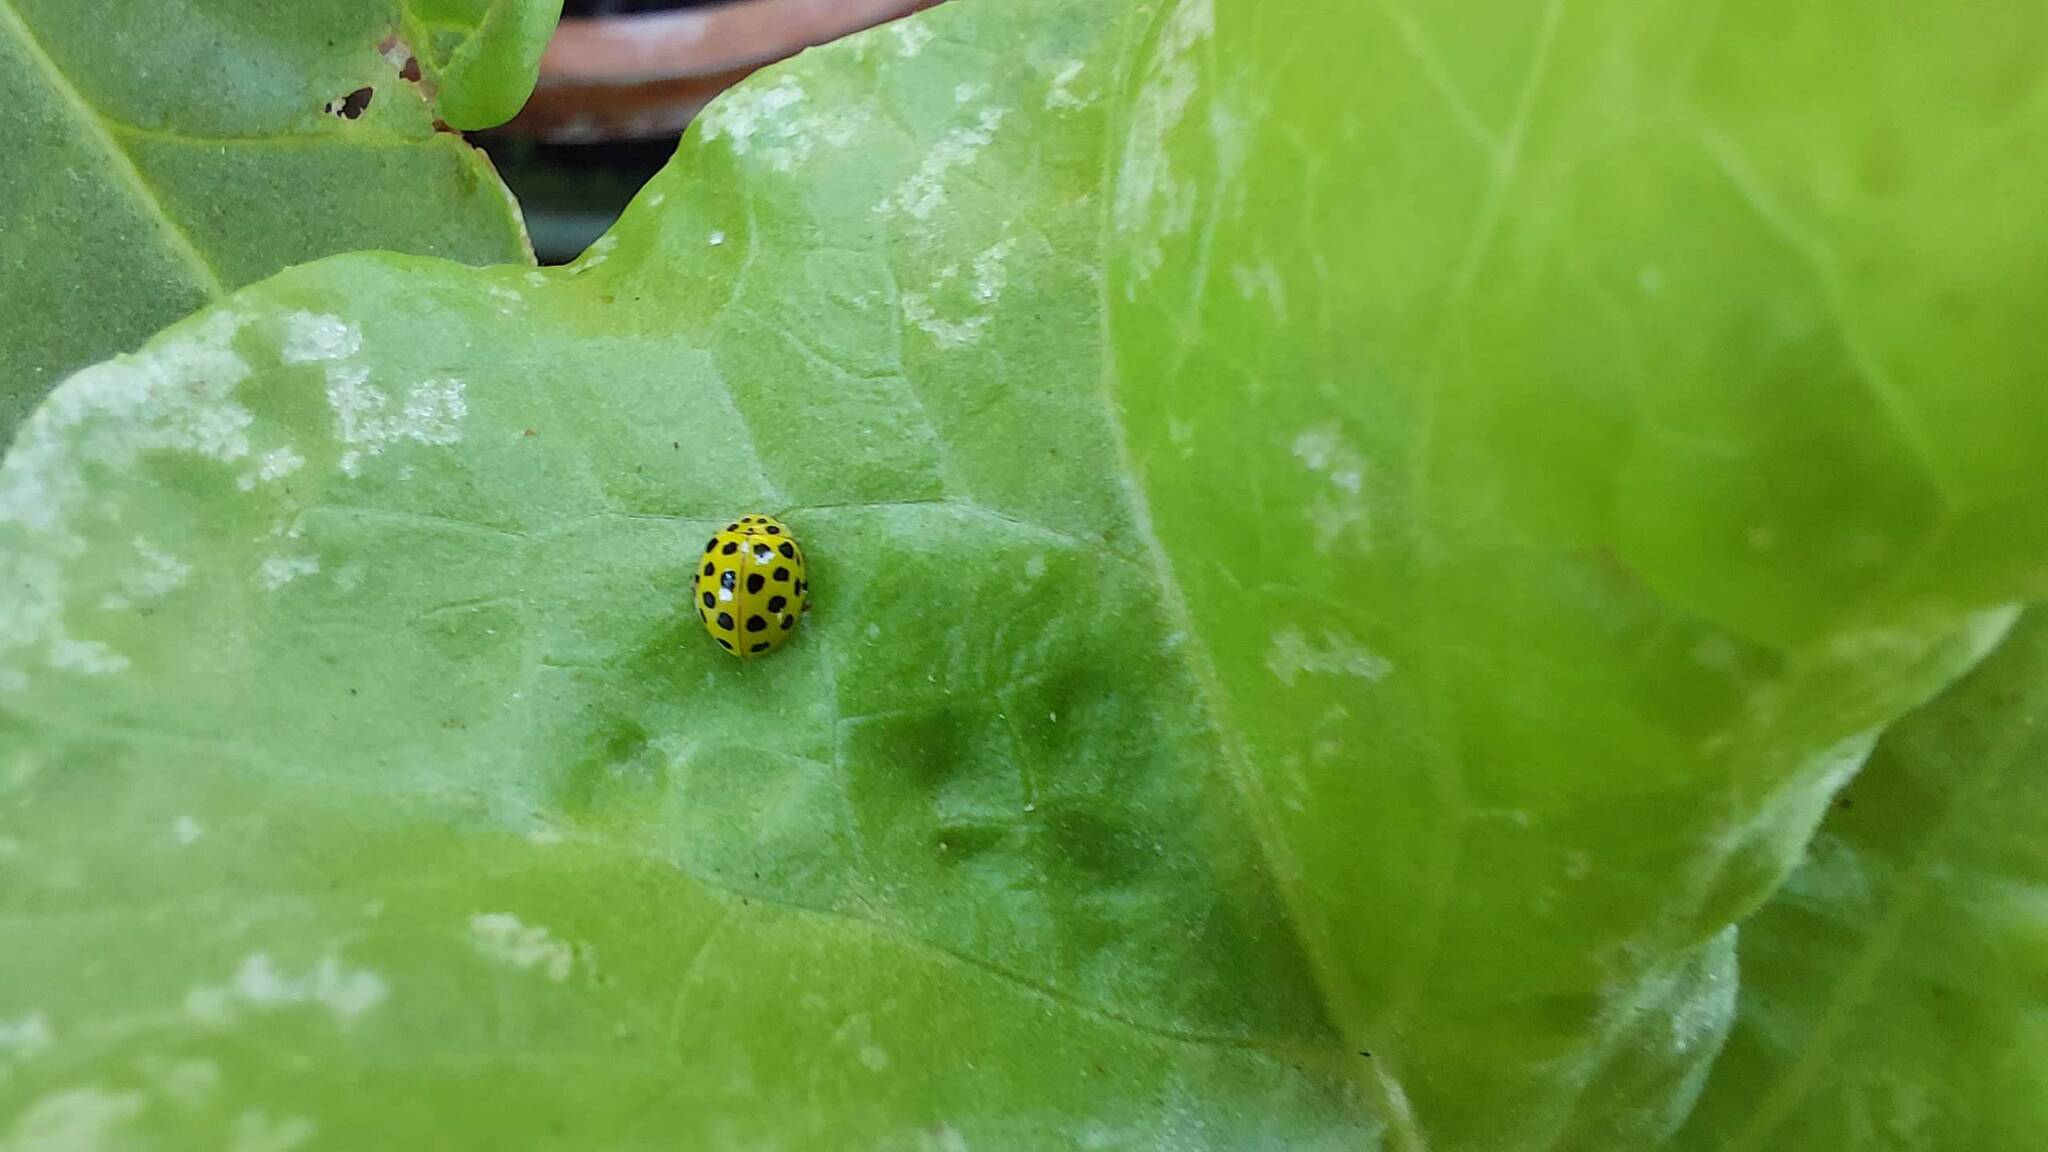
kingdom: Animalia
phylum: Arthropoda
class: Insecta
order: Coleoptera
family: Coccinellidae
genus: Psyllobora
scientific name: Psyllobora vigintiduopunctata
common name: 22-spot ladybird
